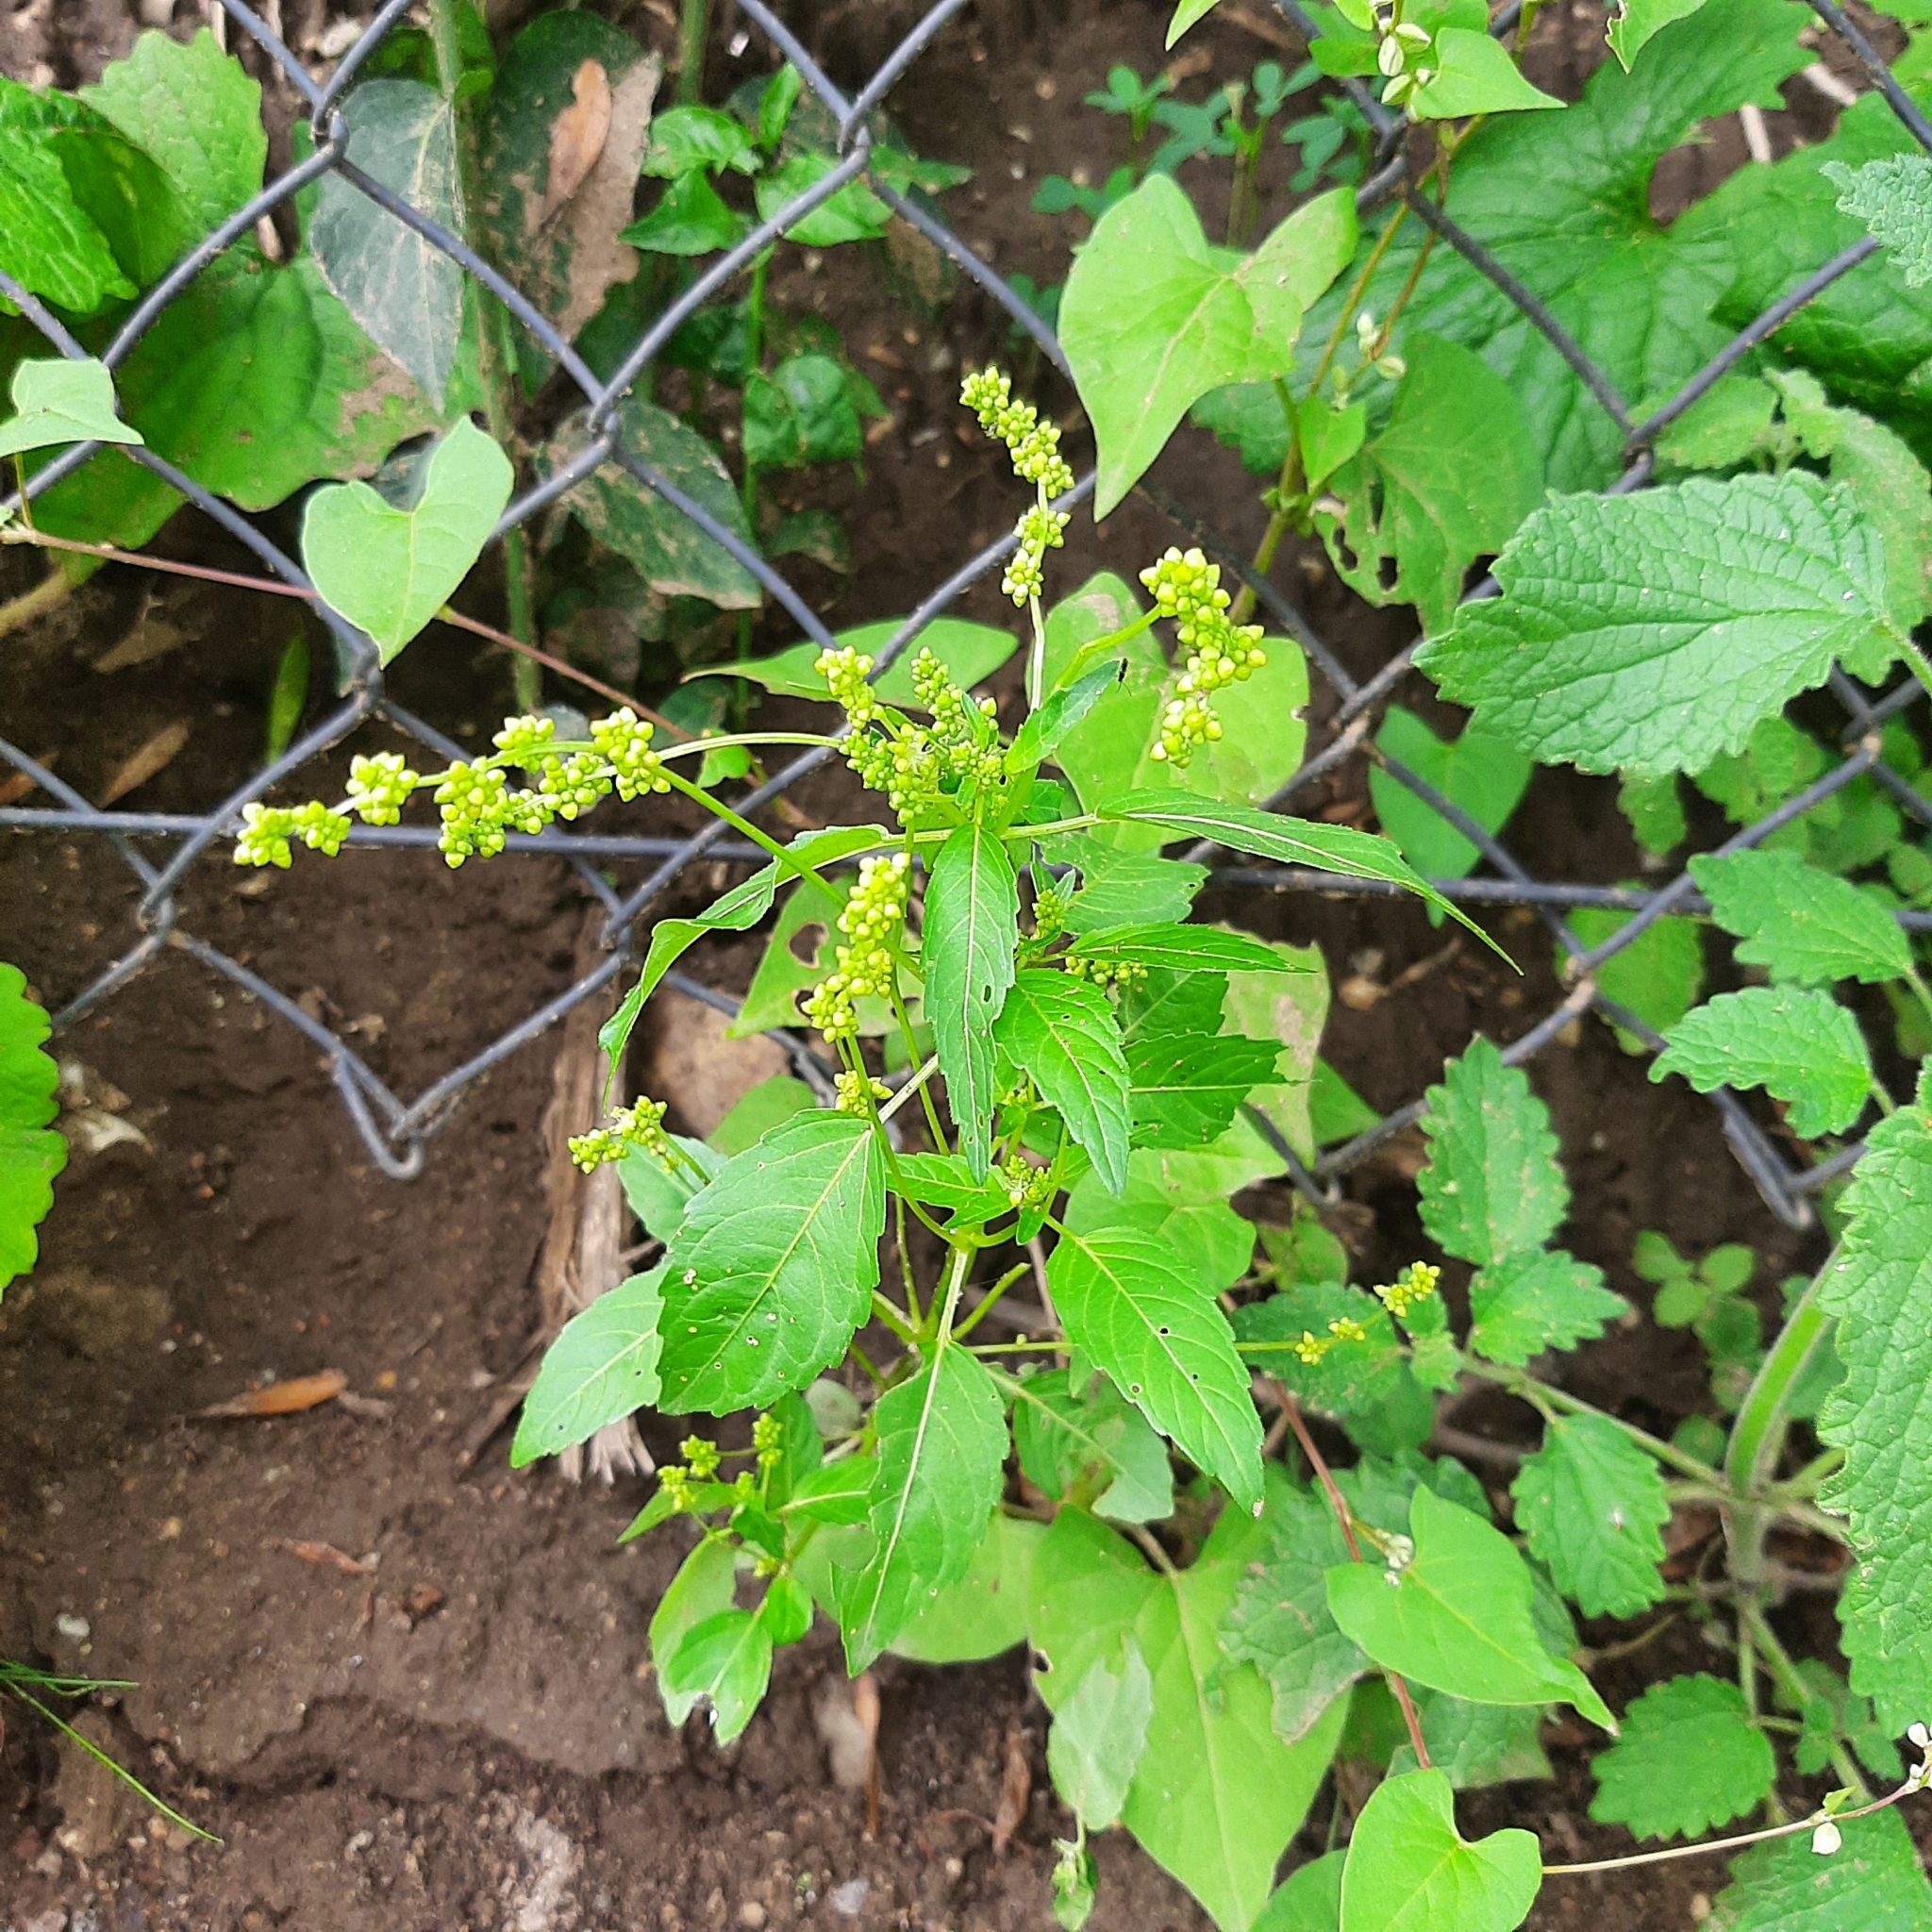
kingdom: Plantae
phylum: Tracheophyta
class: Magnoliopsida
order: Malpighiales
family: Euphorbiaceae
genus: Mercurialis
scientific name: Mercurialis annua
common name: Annual mercury
